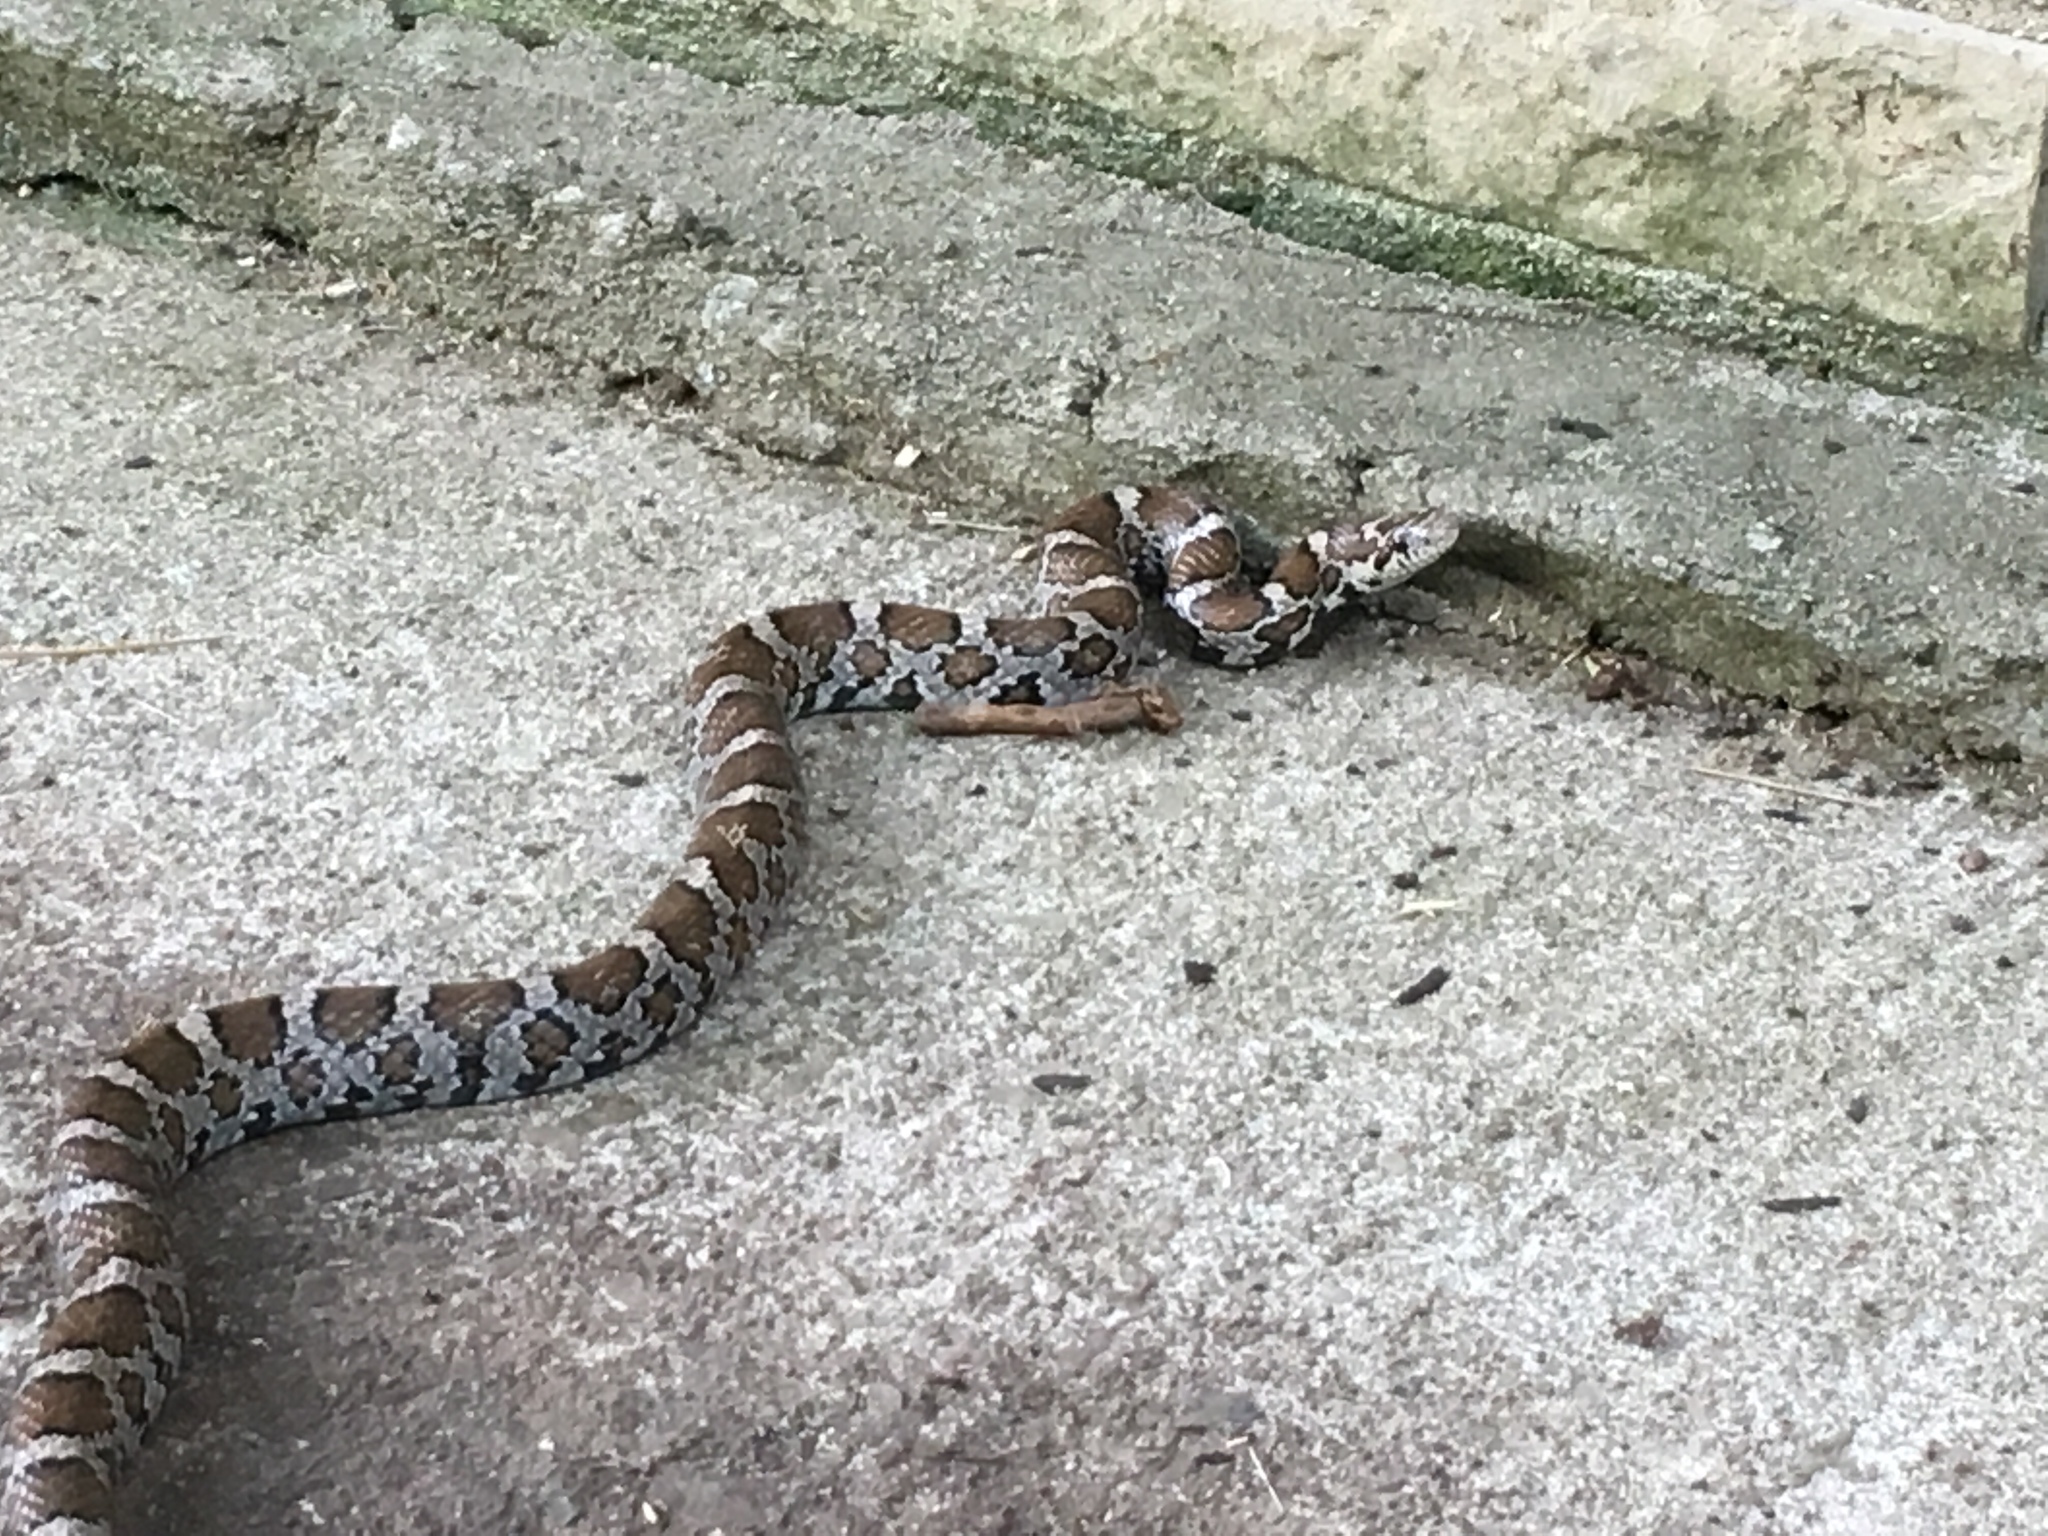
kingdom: Animalia
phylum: Chordata
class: Squamata
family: Colubridae
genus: Lampropeltis
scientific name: Lampropeltis triangulum
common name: Eastern milksnake
